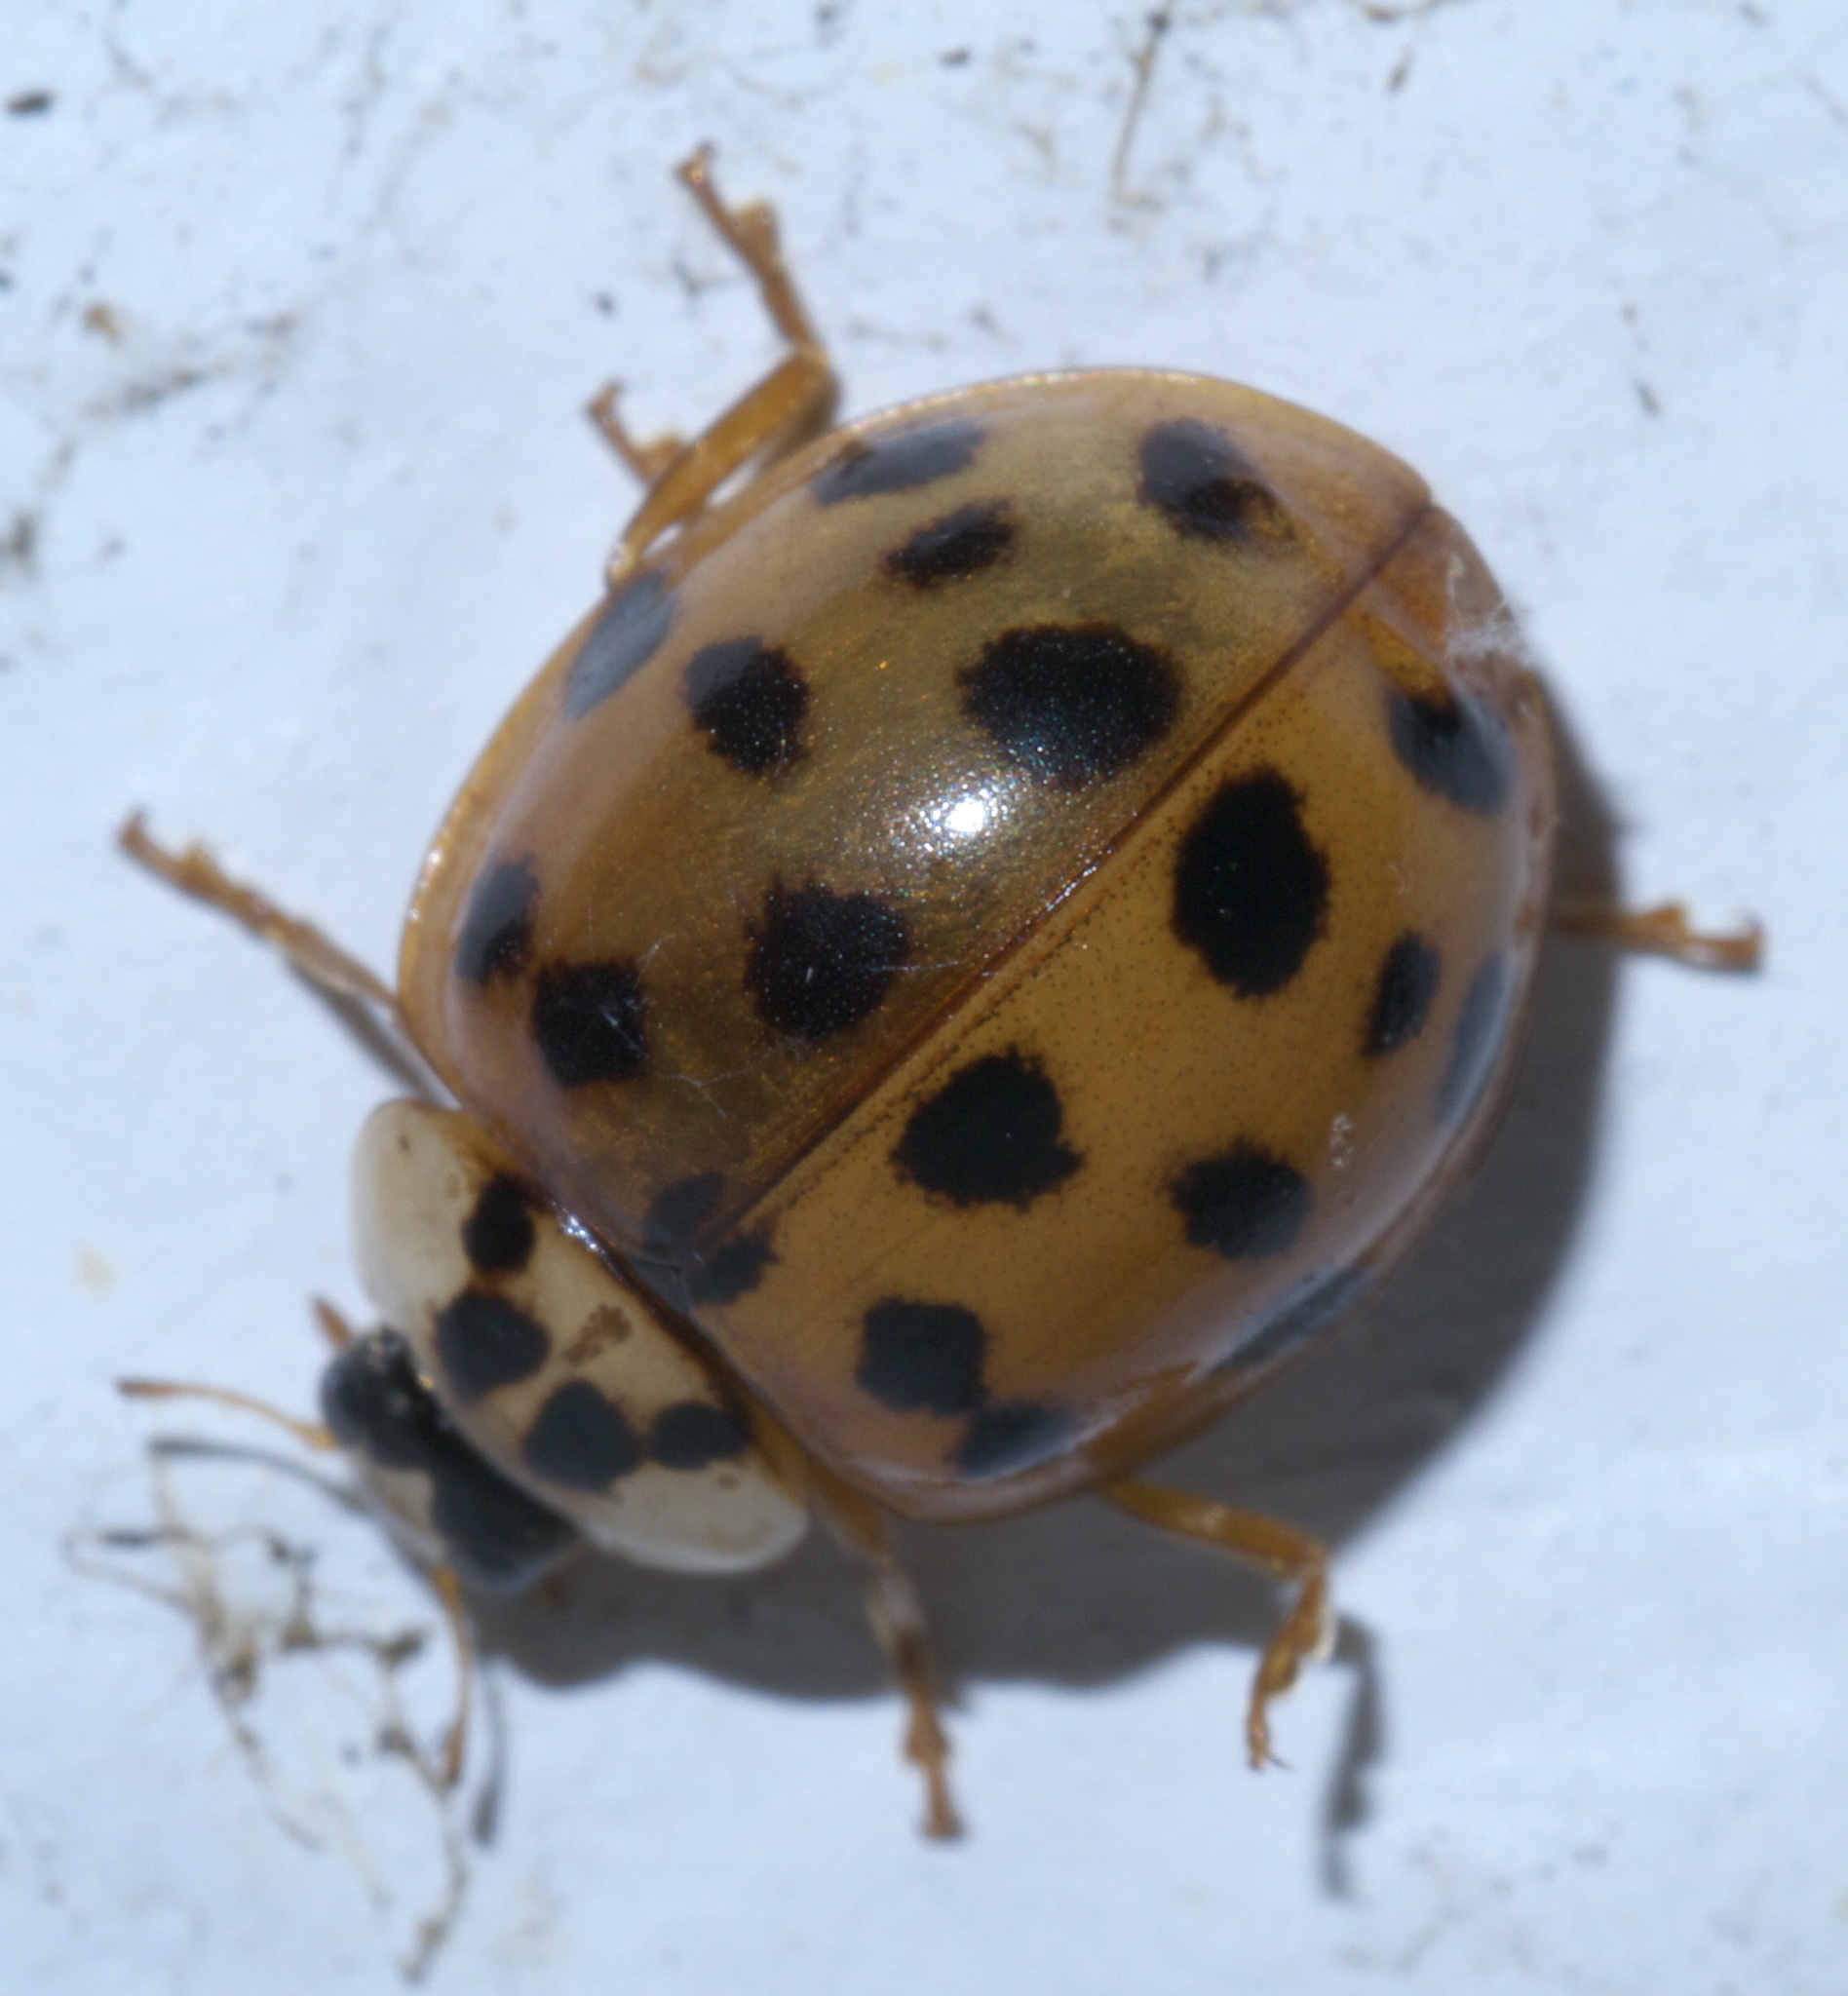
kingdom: Animalia
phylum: Arthropoda
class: Insecta
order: Coleoptera
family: Coccinellidae
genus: Harmonia
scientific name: Harmonia axyridis
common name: Harlequin ladybird
